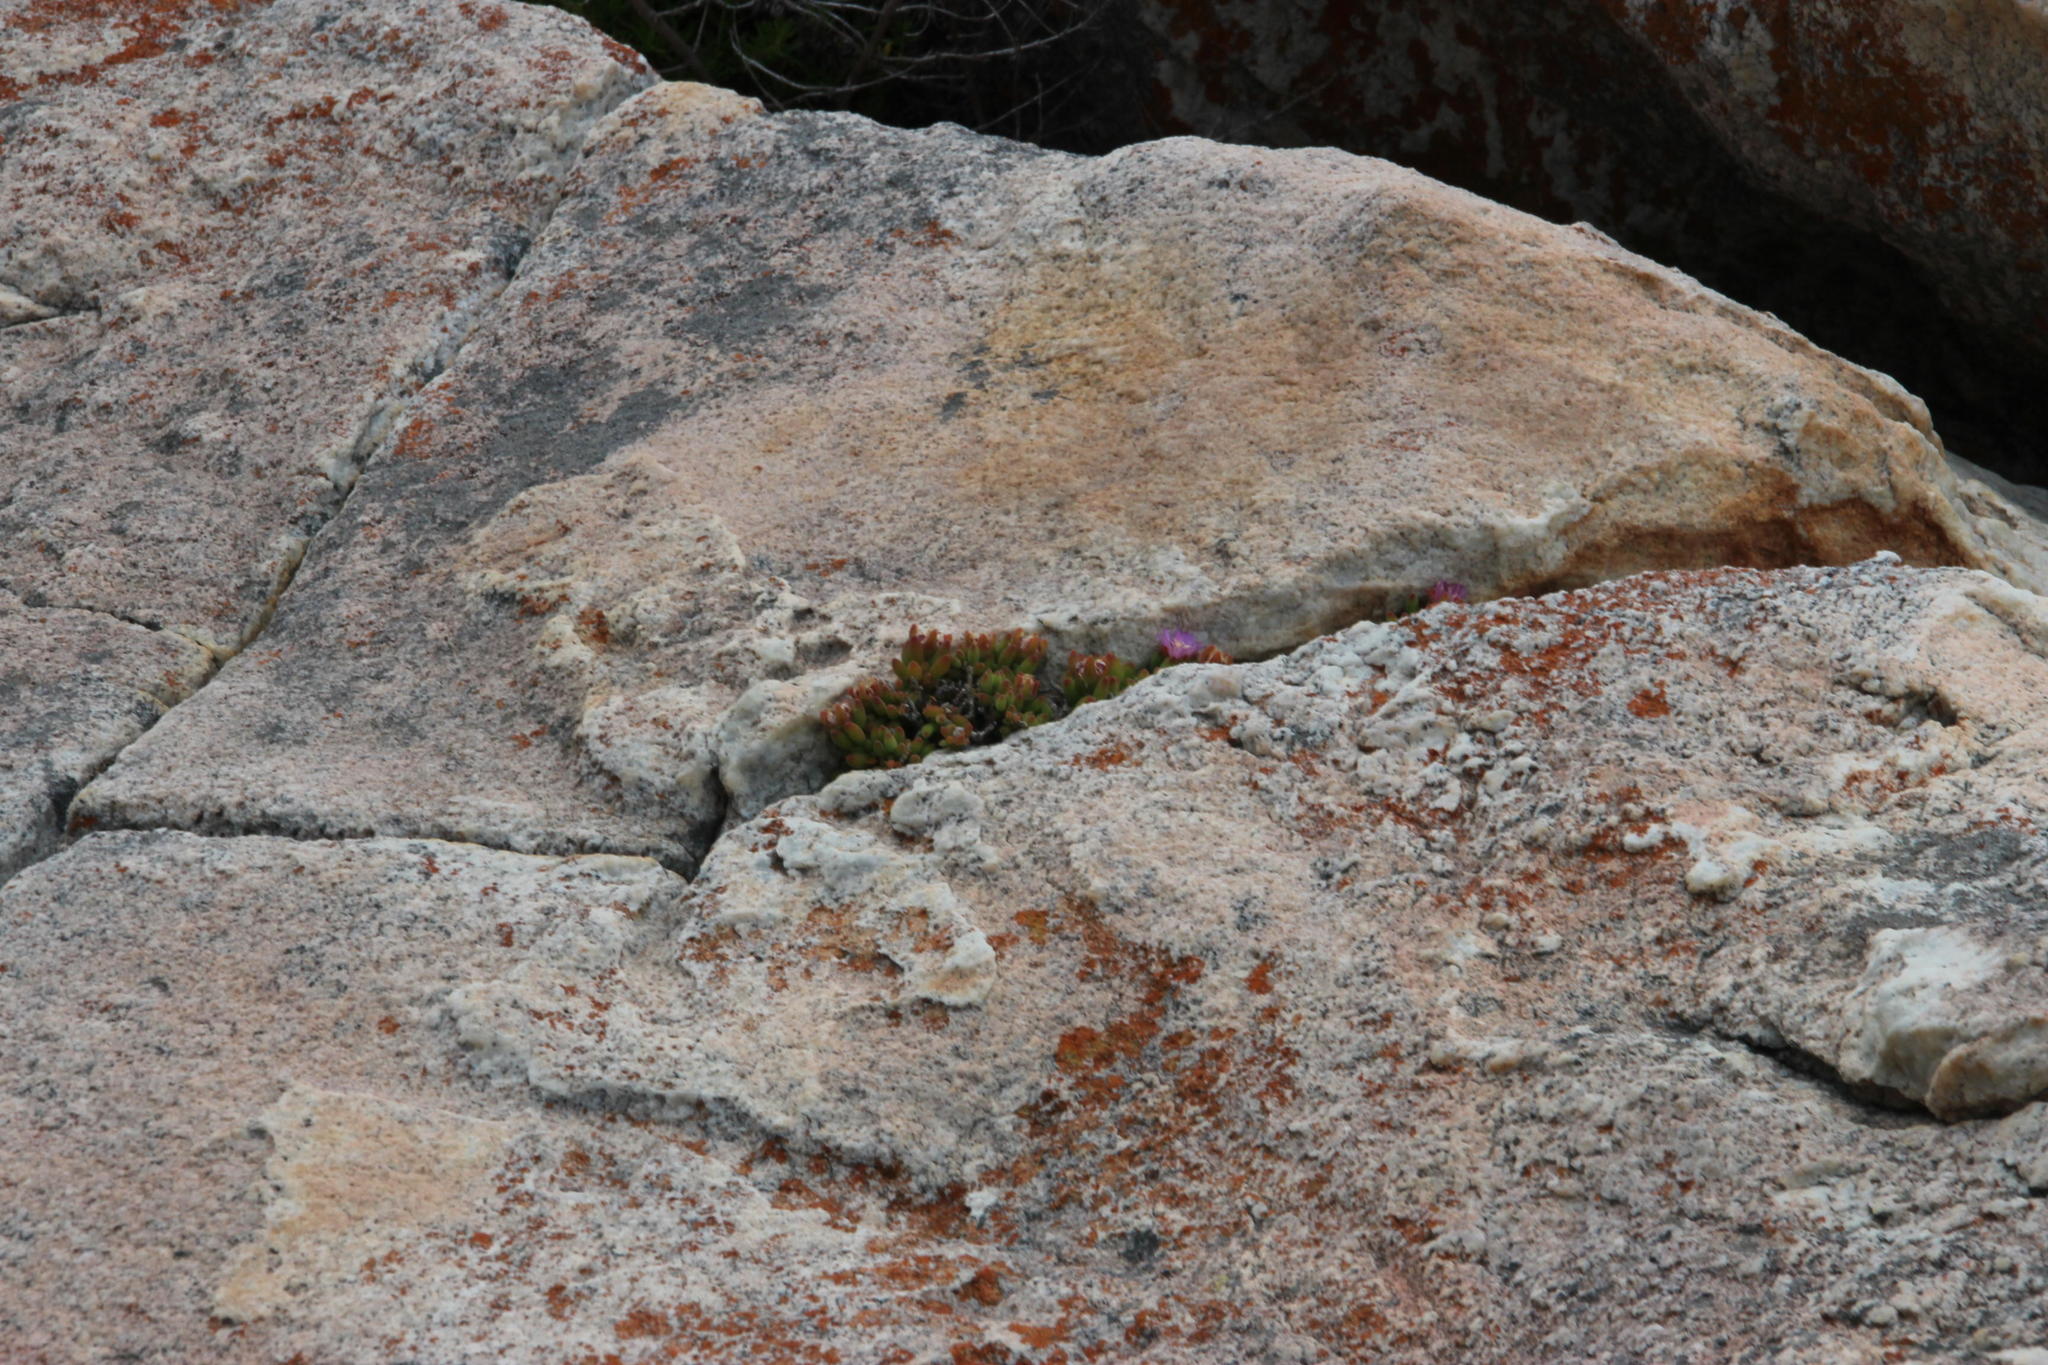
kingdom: Plantae
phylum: Tracheophyta
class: Magnoliopsida
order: Caryophyllales
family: Aizoaceae
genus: Drosanthemum
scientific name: Drosanthemum stokoei
